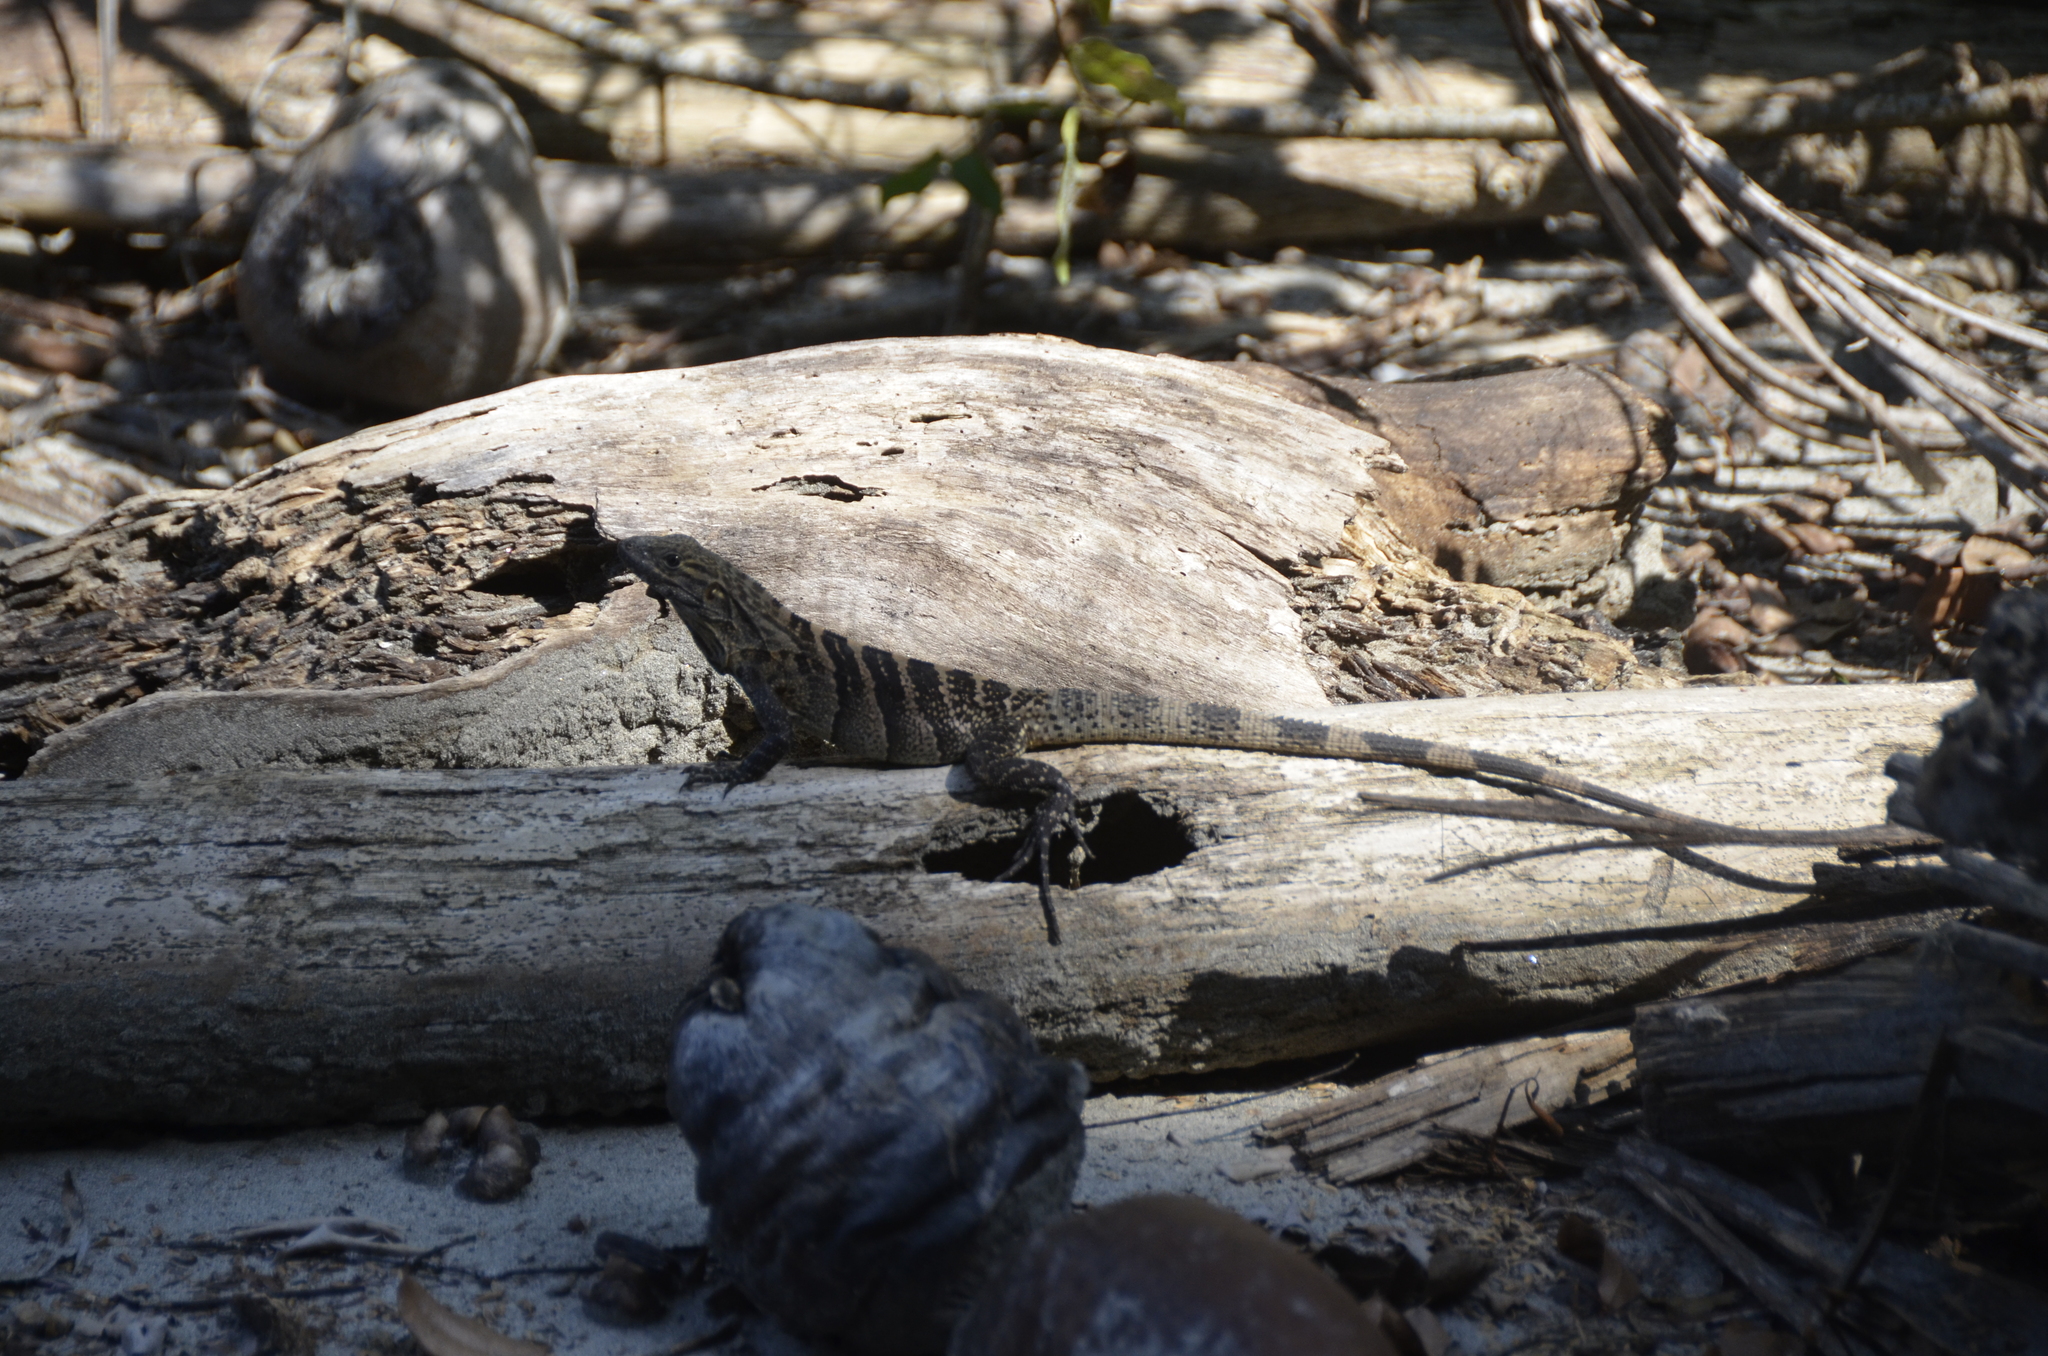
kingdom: Animalia
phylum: Chordata
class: Squamata
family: Iguanidae
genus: Ctenosaura
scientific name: Ctenosaura similis
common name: Black spiny-tailed iguana
